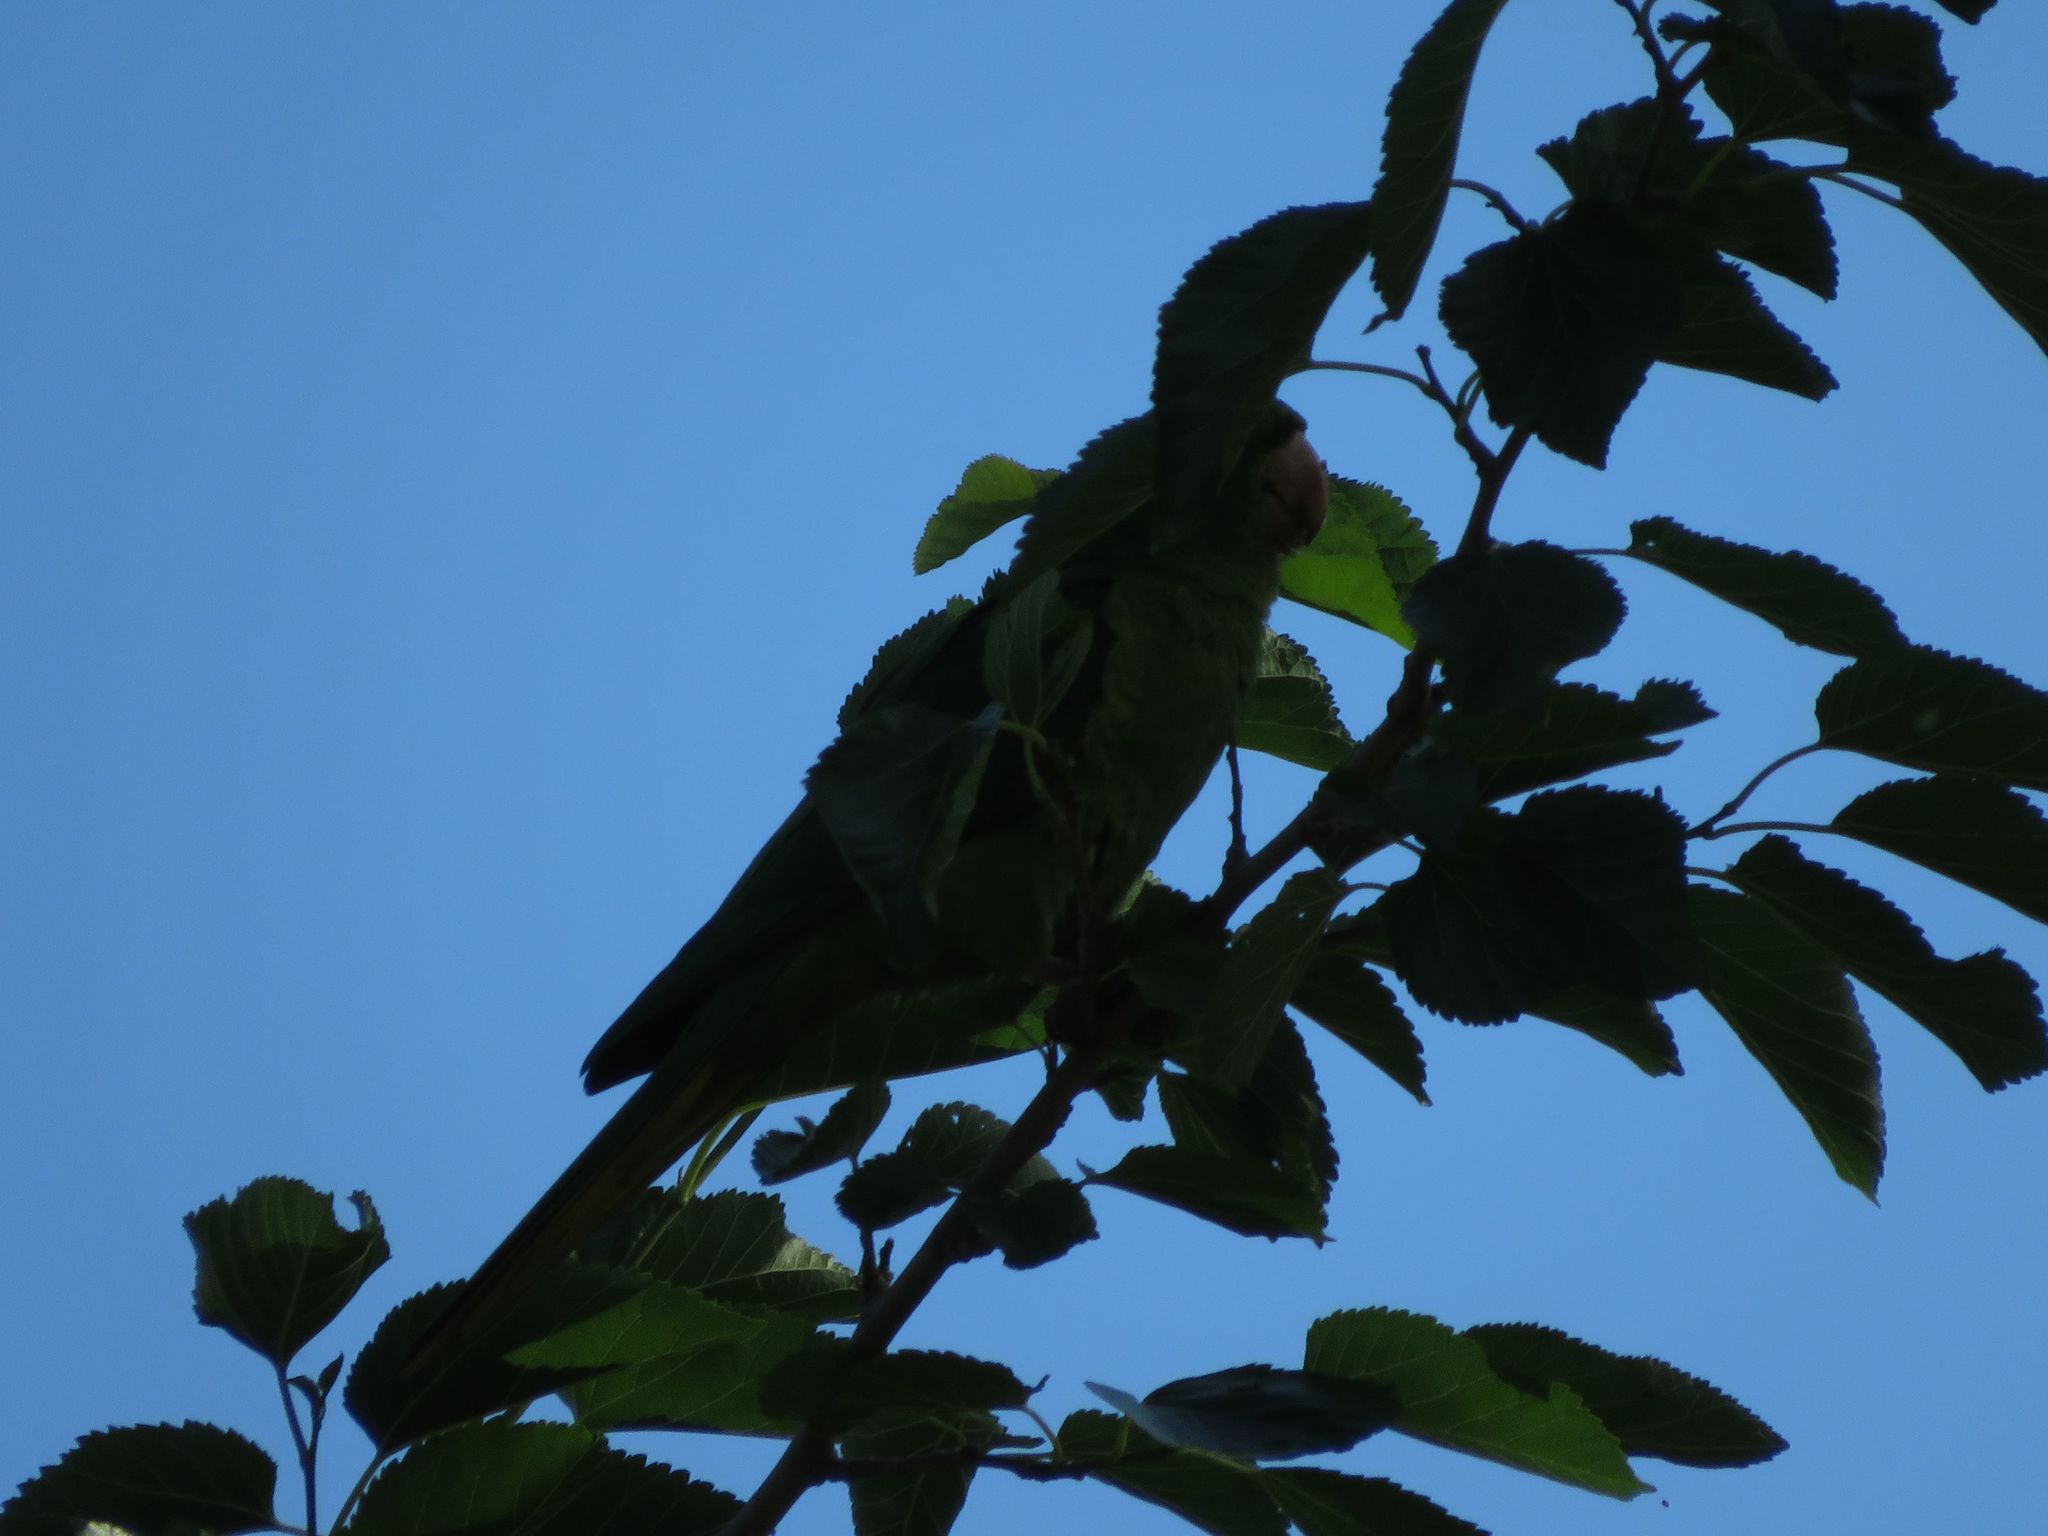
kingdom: Animalia
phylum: Chordata
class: Aves
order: Psittaciformes
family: Psittacidae
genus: Aratinga
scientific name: Aratinga leucophthalma
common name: White-eyed parakeet
